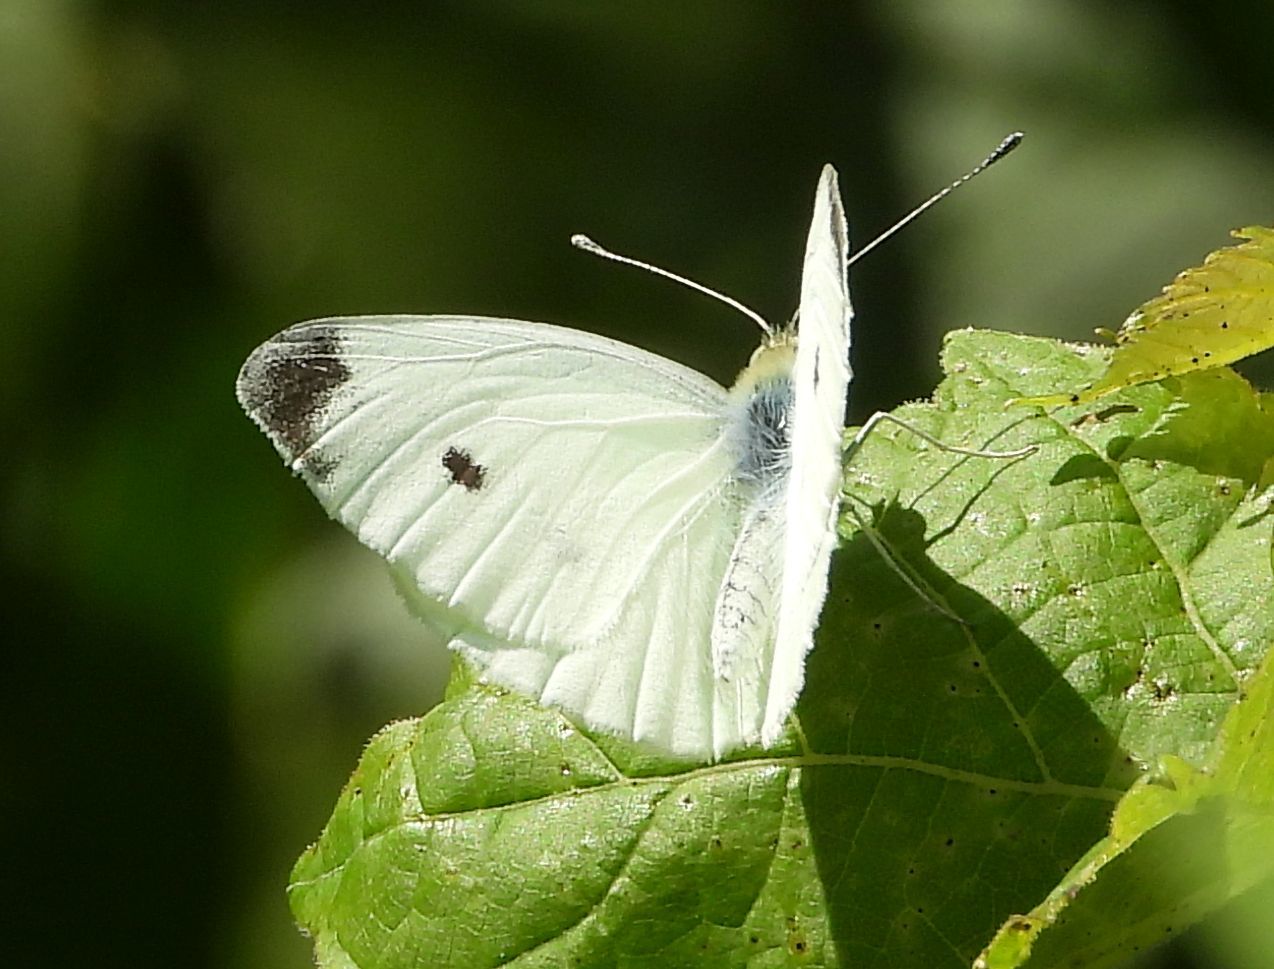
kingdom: Animalia
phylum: Arthropoda
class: Insecta
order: Lepidoptera
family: Pieridae
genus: Pieris
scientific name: Pieris rapae
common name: Small white
